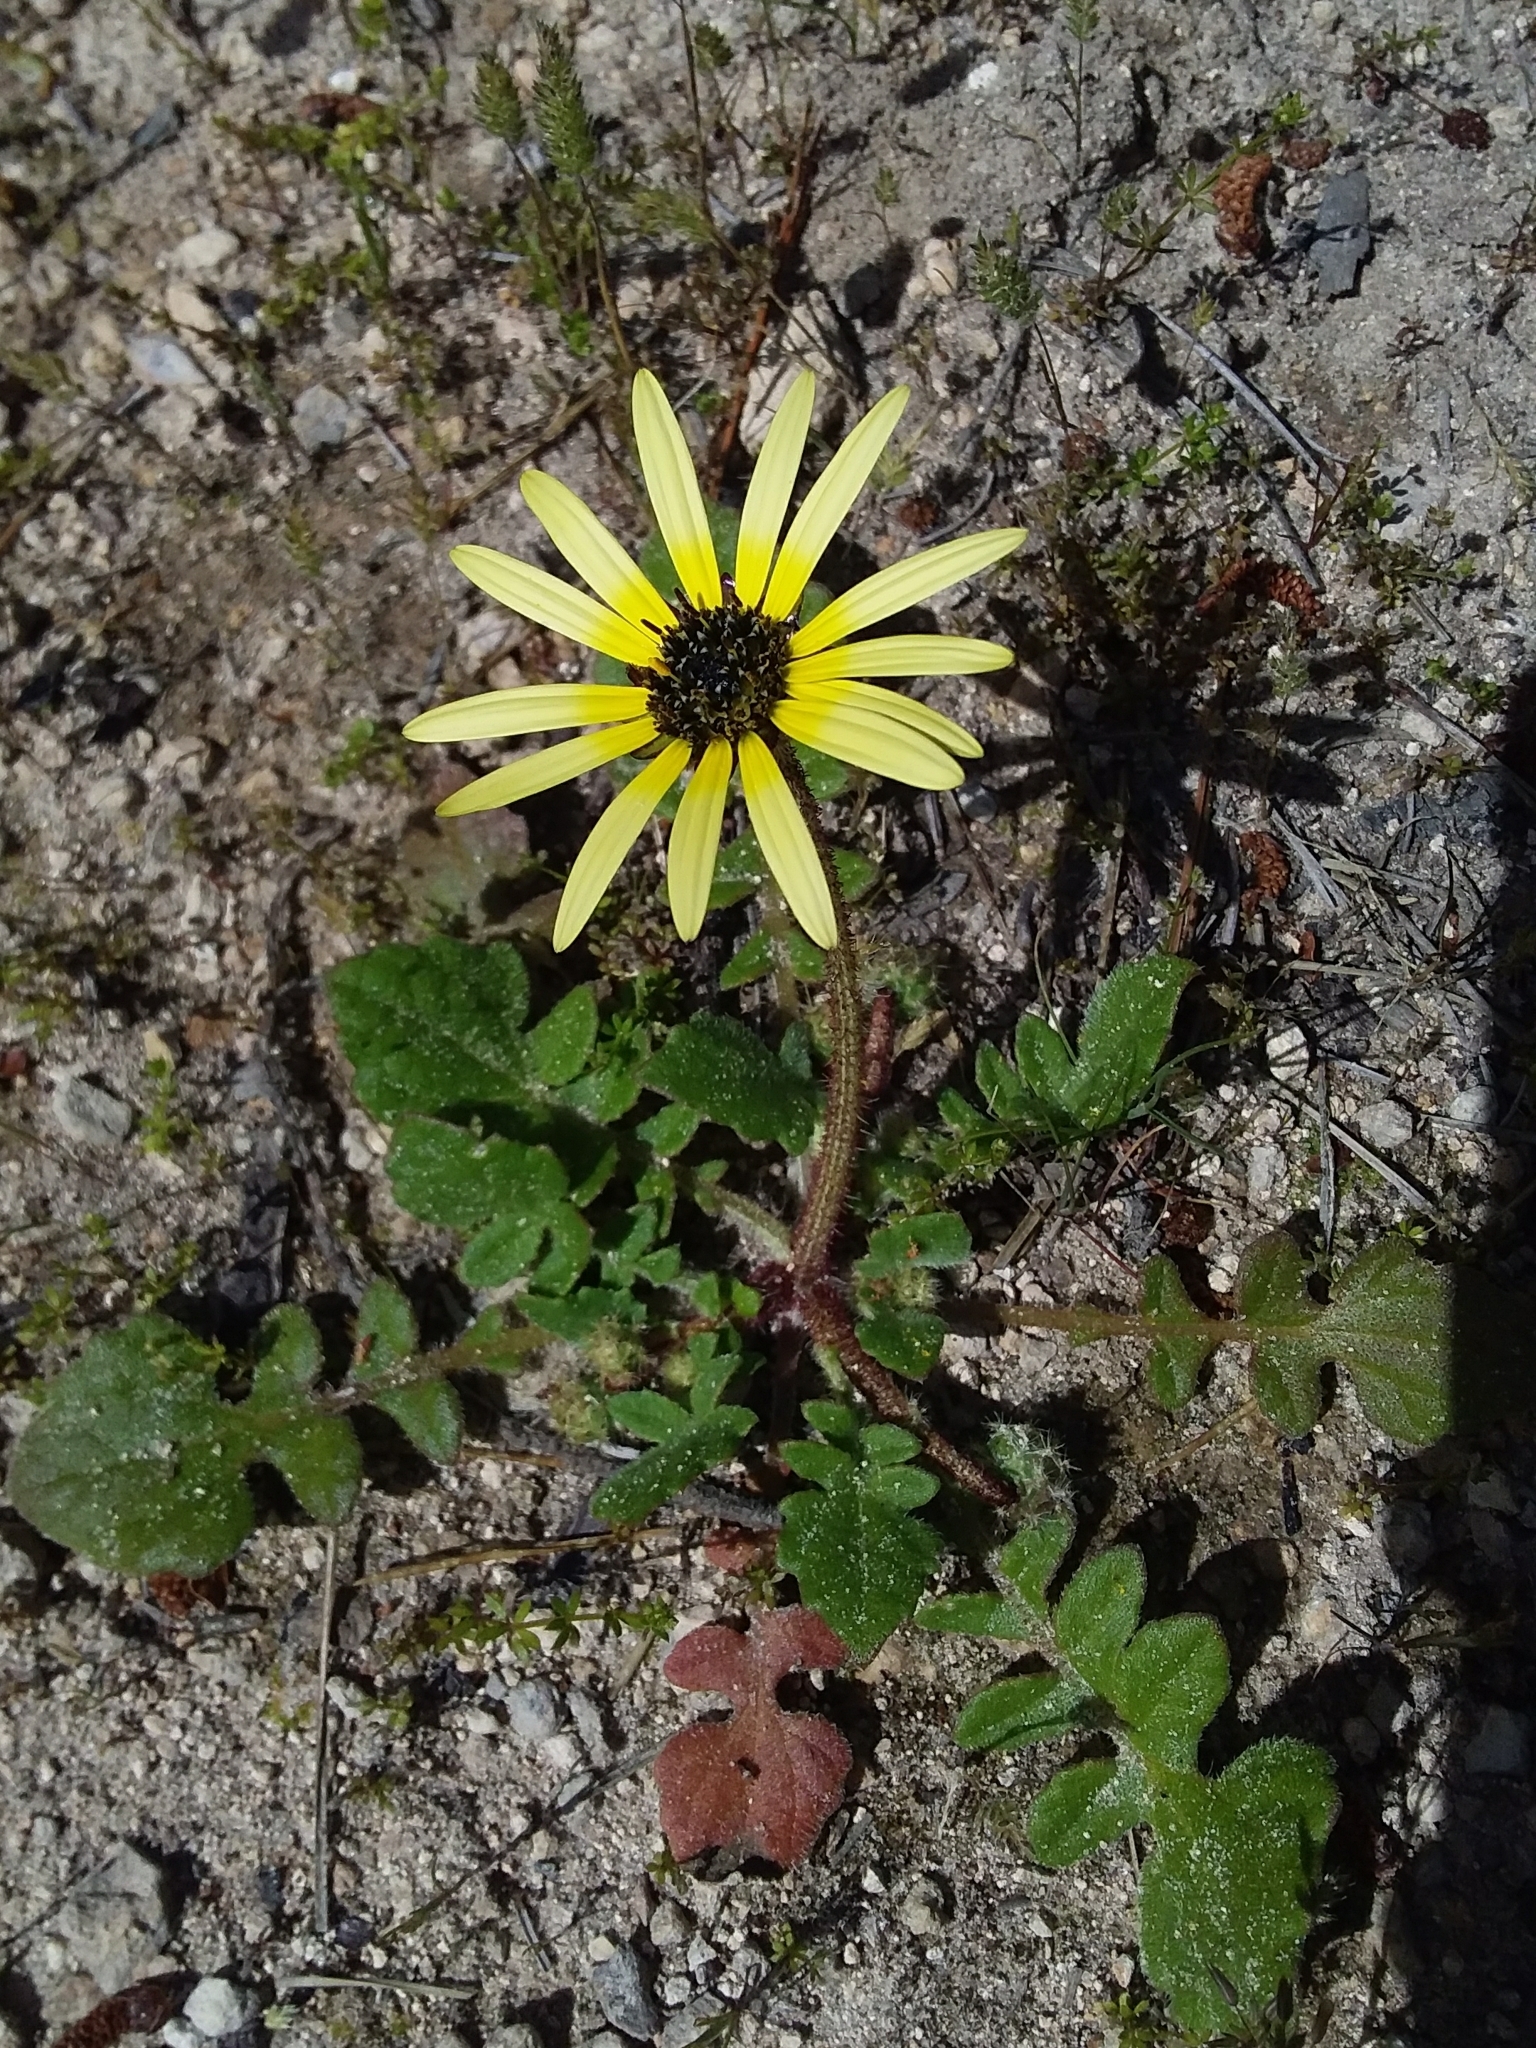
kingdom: Plantae
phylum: Tracheophyta
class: Magnoliopsida
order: Asterales
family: Asteraceae
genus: Arctotheca
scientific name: Arctotheca calendula
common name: Capeweed
